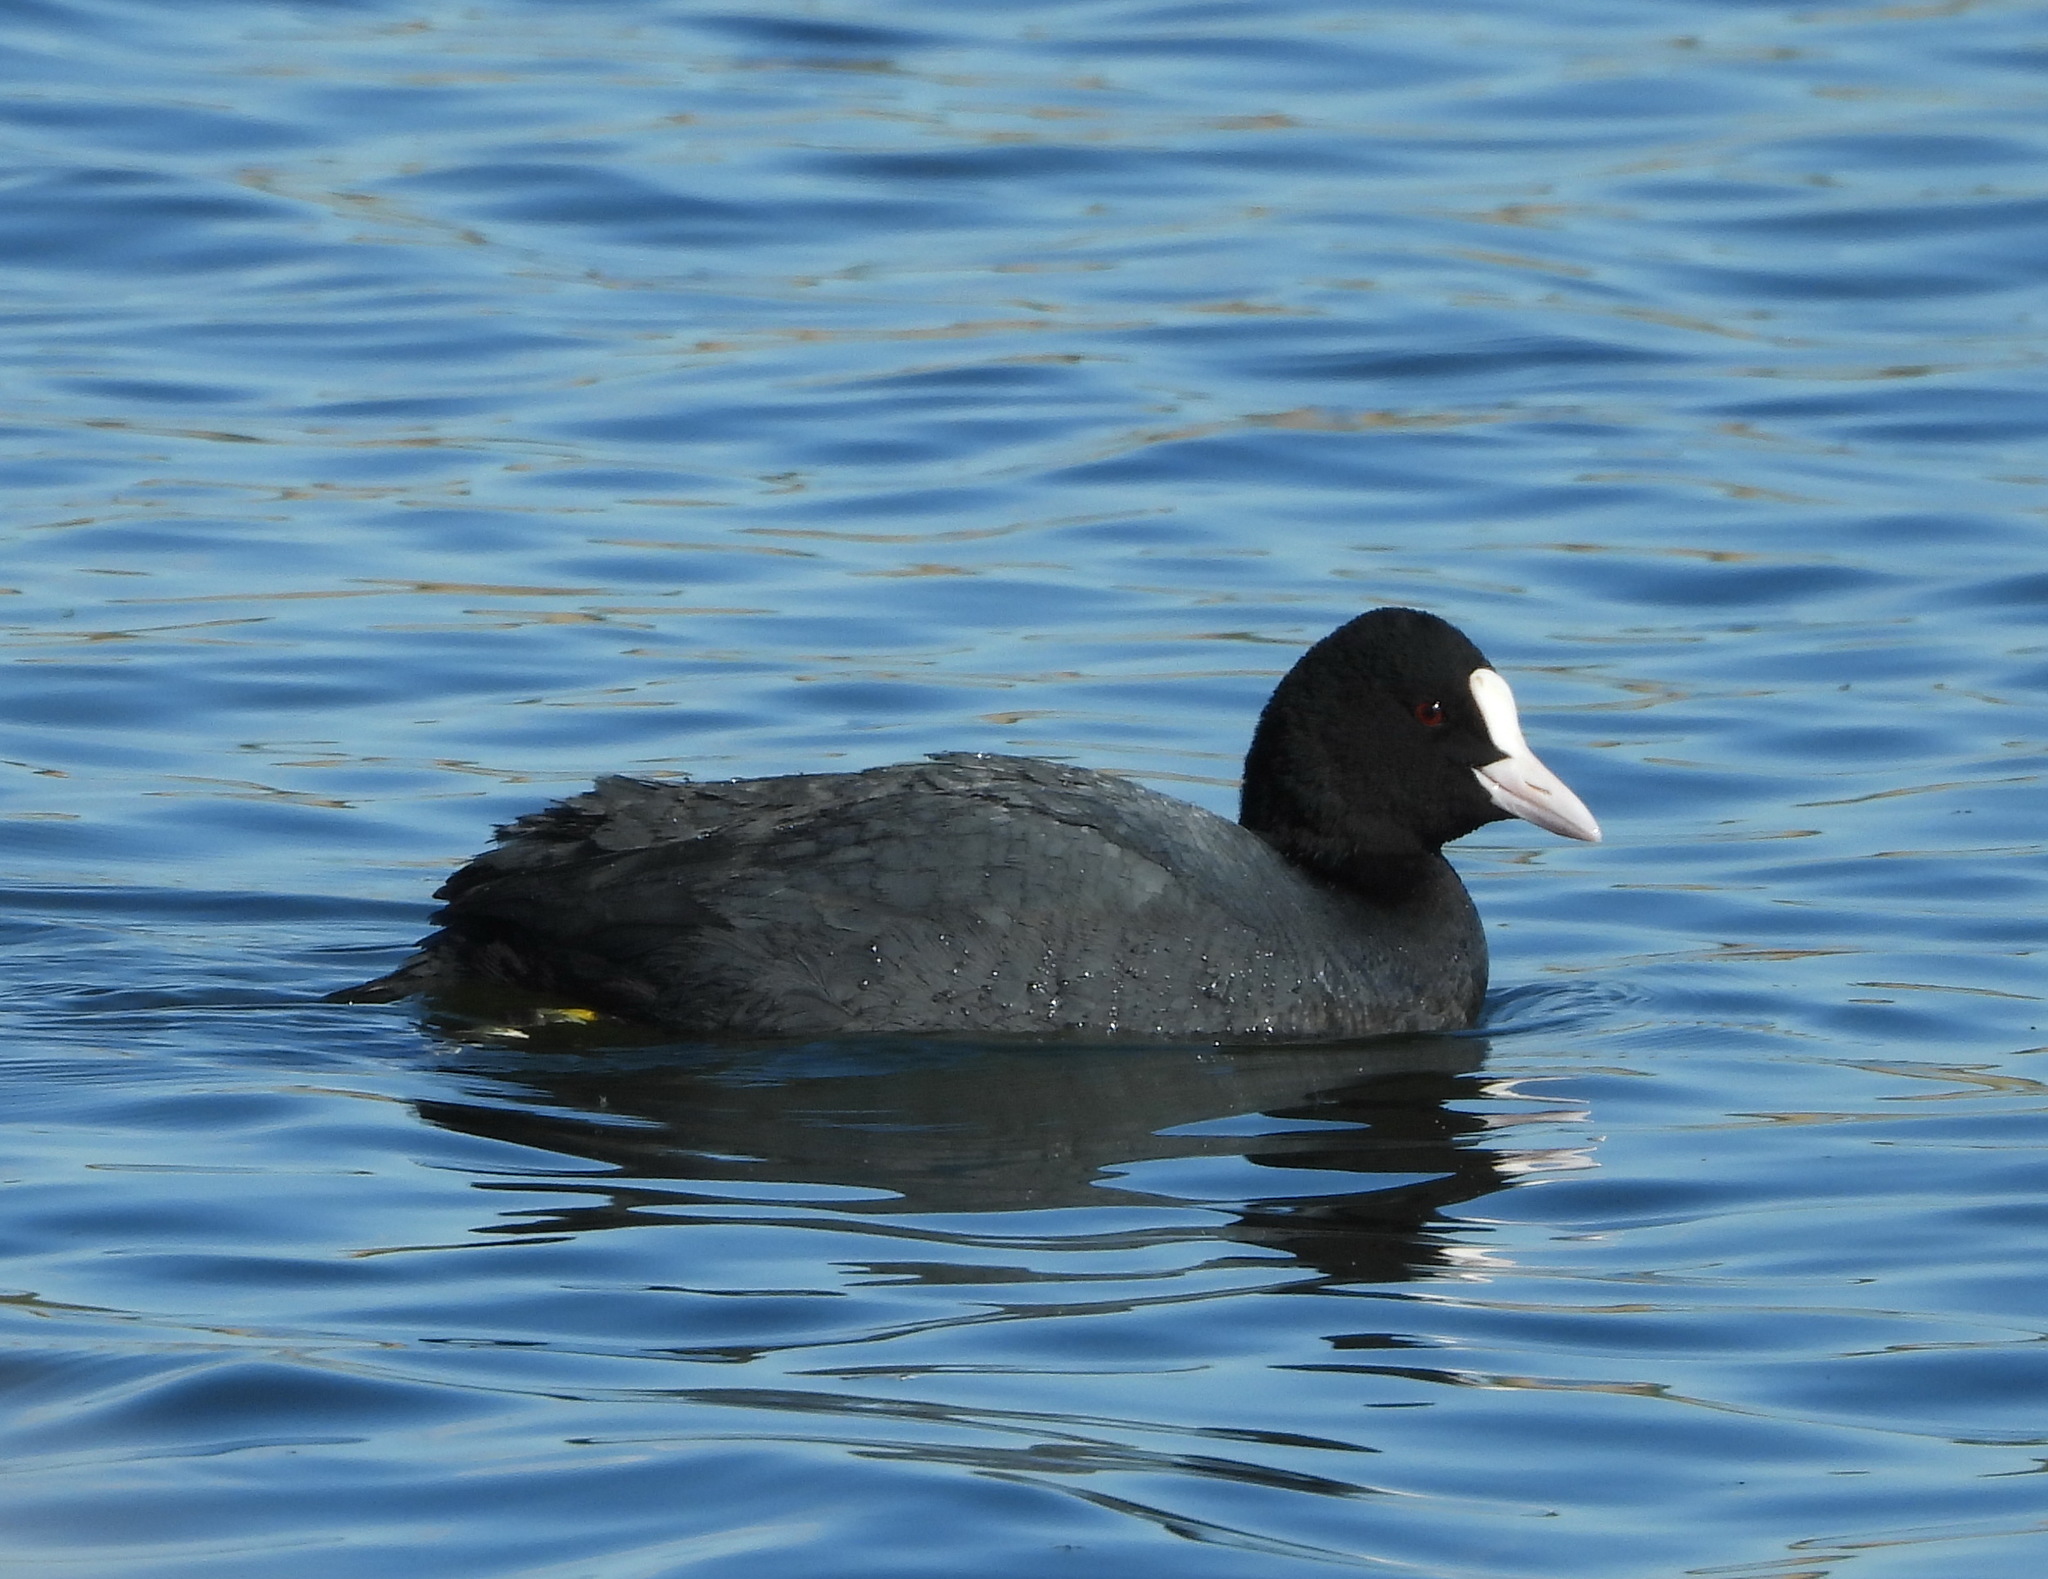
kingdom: Animalia
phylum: Chordata
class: Aves
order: Gruiformes
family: Rallidae
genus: Fulica
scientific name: Fulica atra
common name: Eurasian coot
